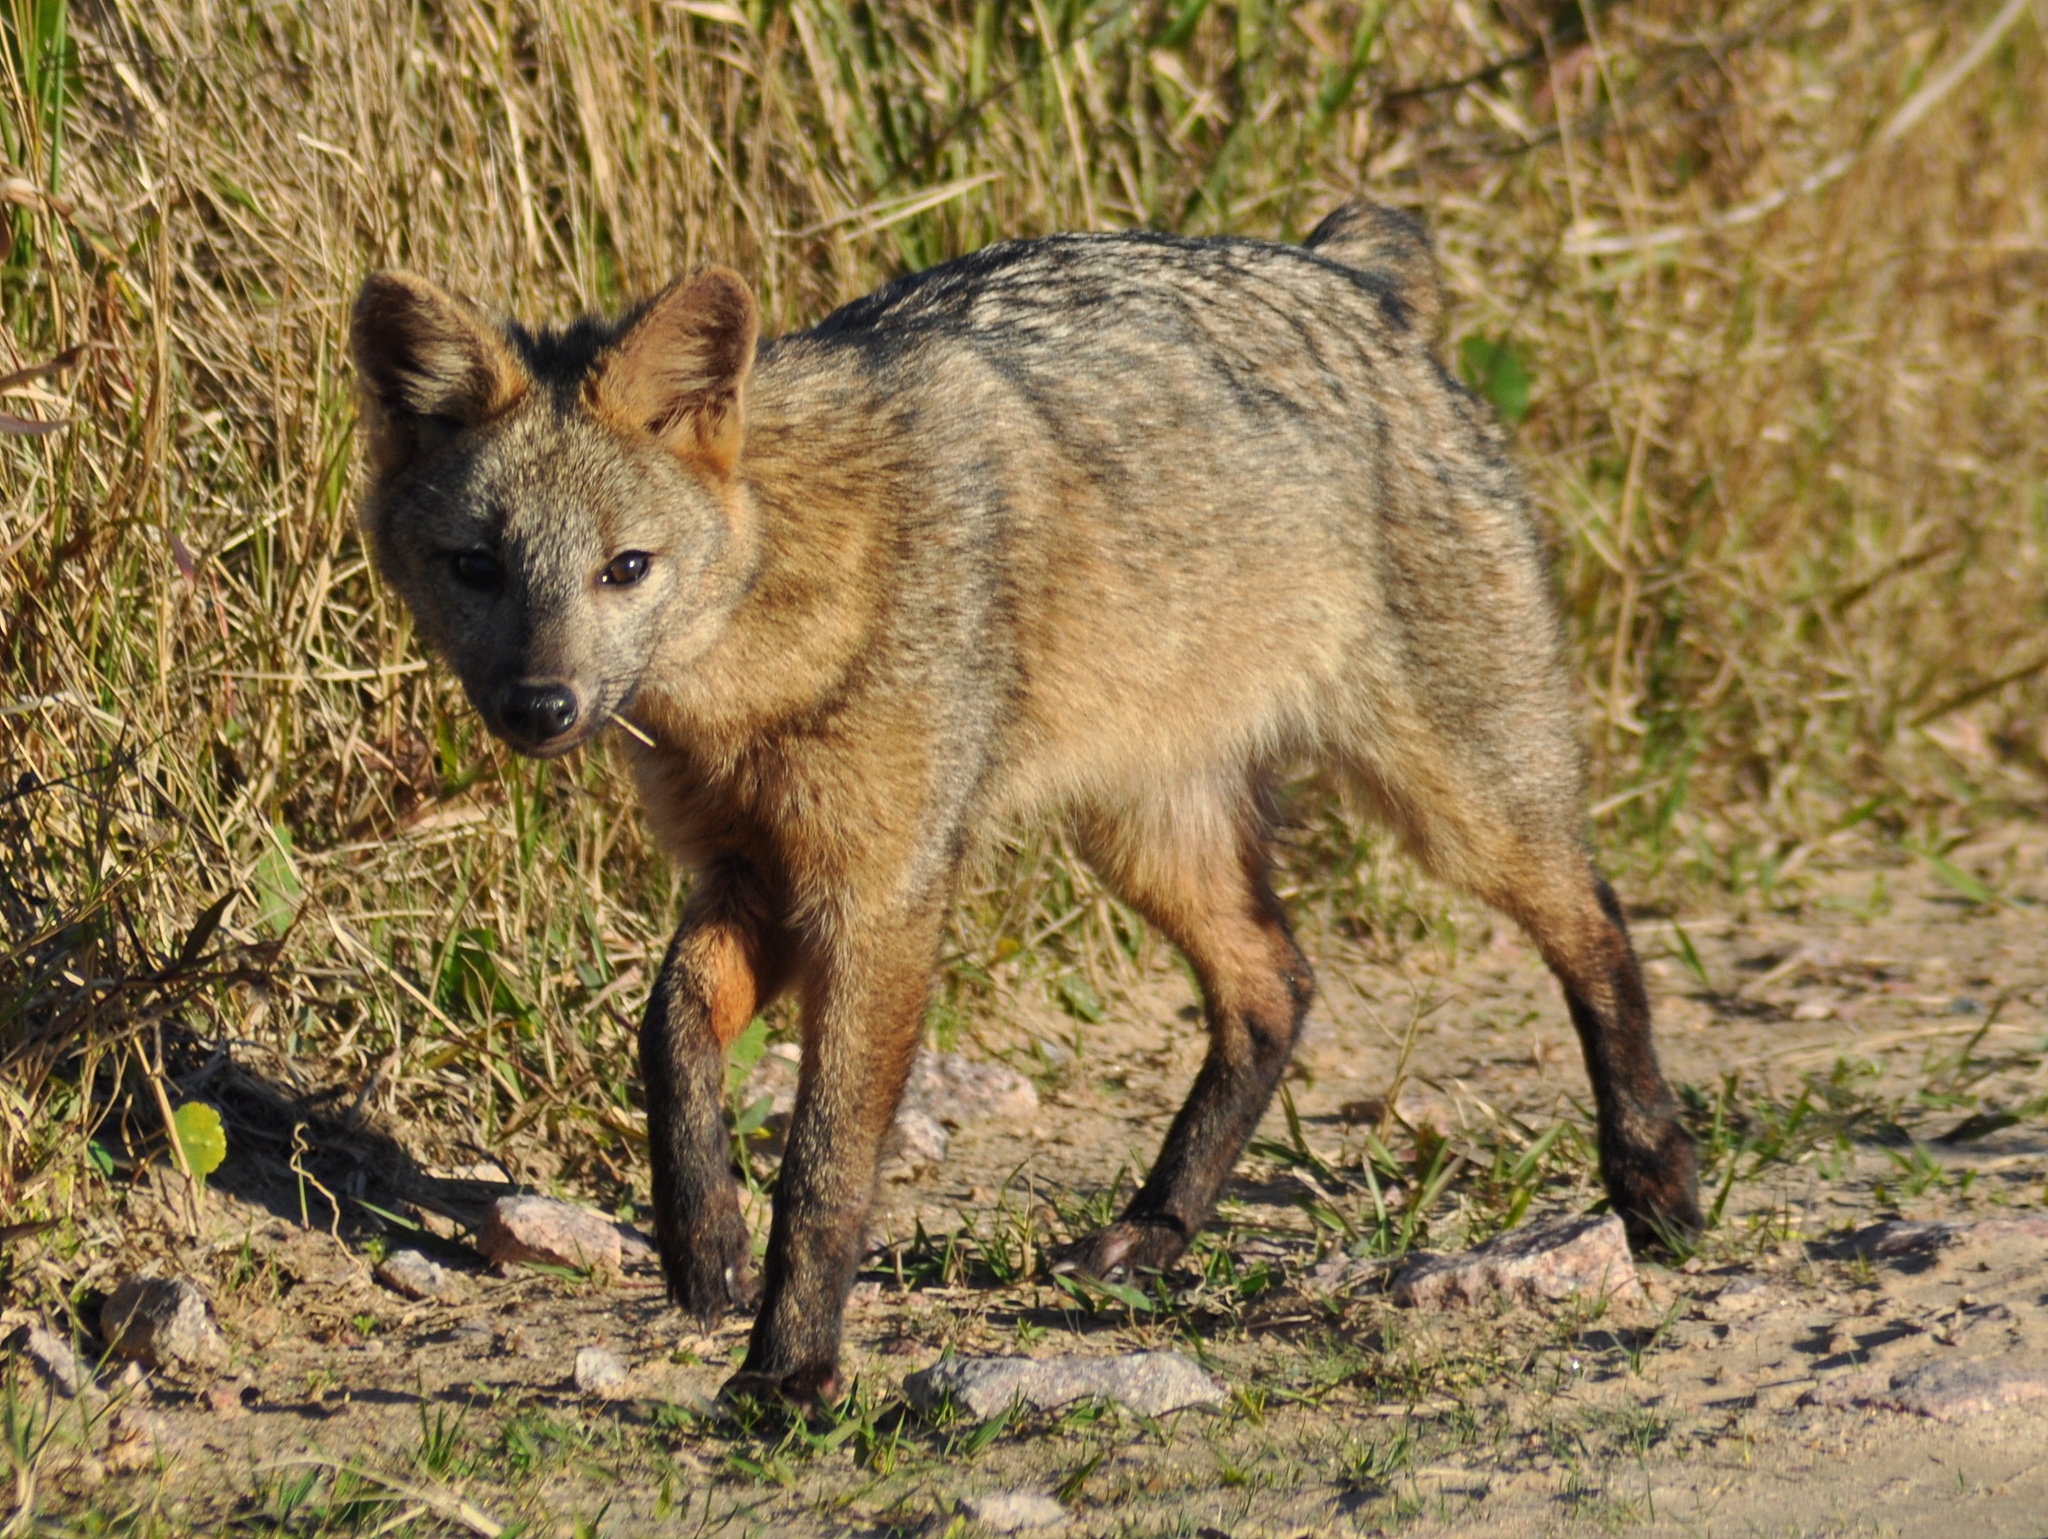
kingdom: Animalia
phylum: Chordata
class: Mammalia
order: Carnivora
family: Canidae
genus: Cerdocyon
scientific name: Cerdocyon thous
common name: Crab-eating fox
